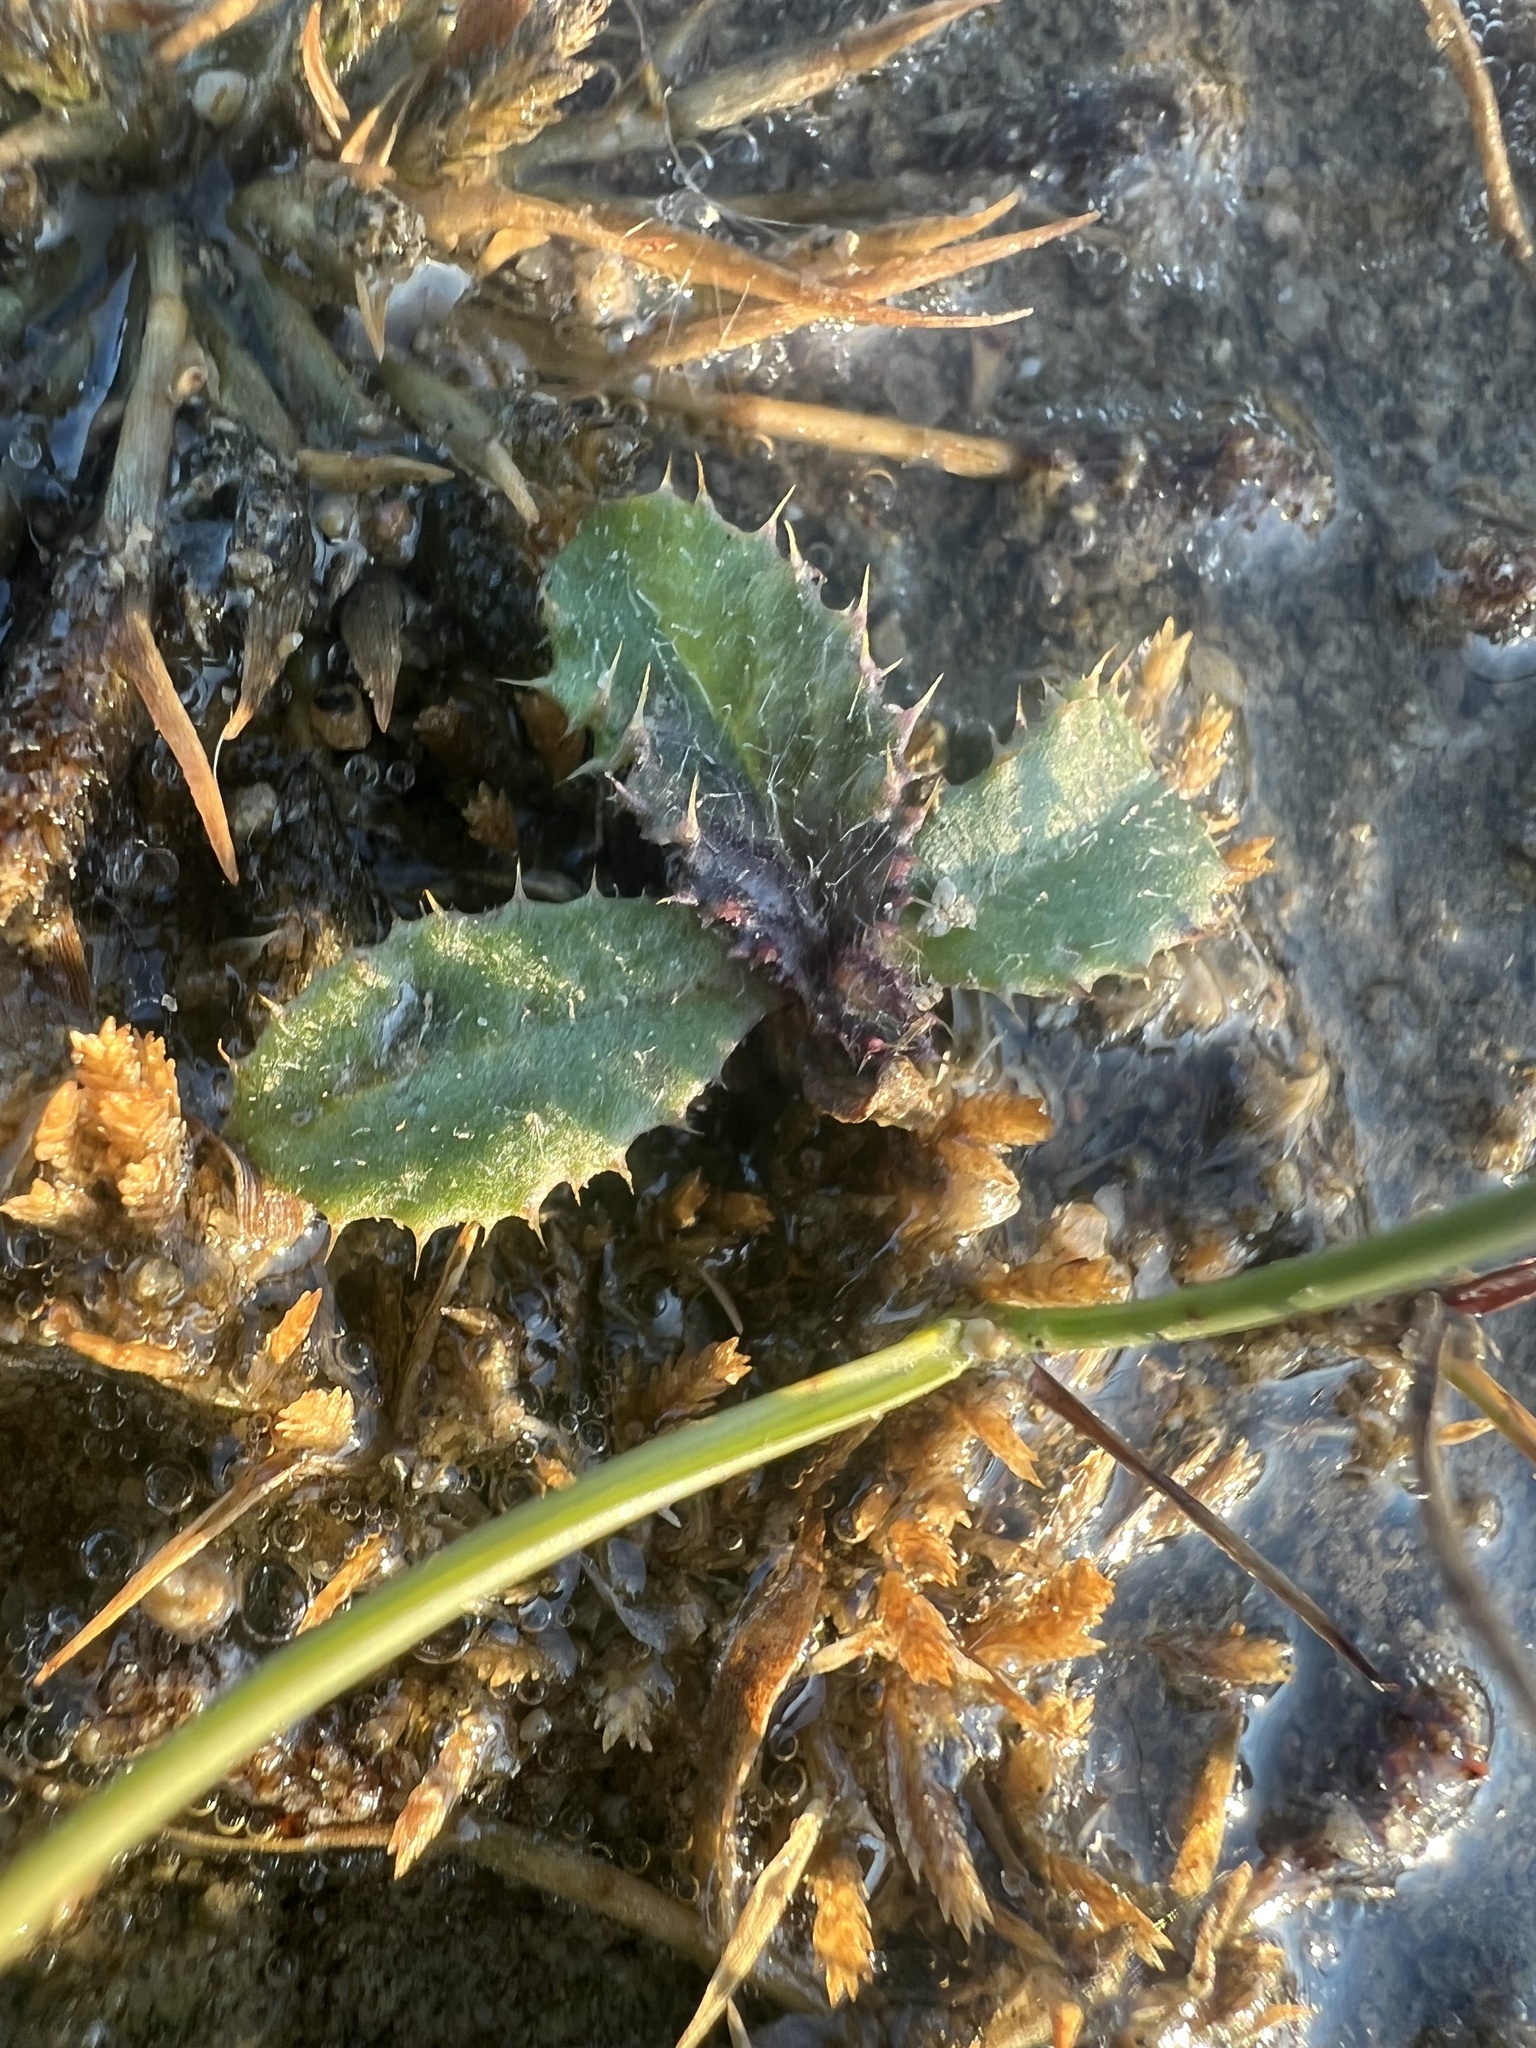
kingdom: Plantae
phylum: Tracheophyta
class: Magnoliopsida
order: Asterales
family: Asteraceae
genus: Cirsium
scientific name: Cirsium arvense
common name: Creeping thistle
